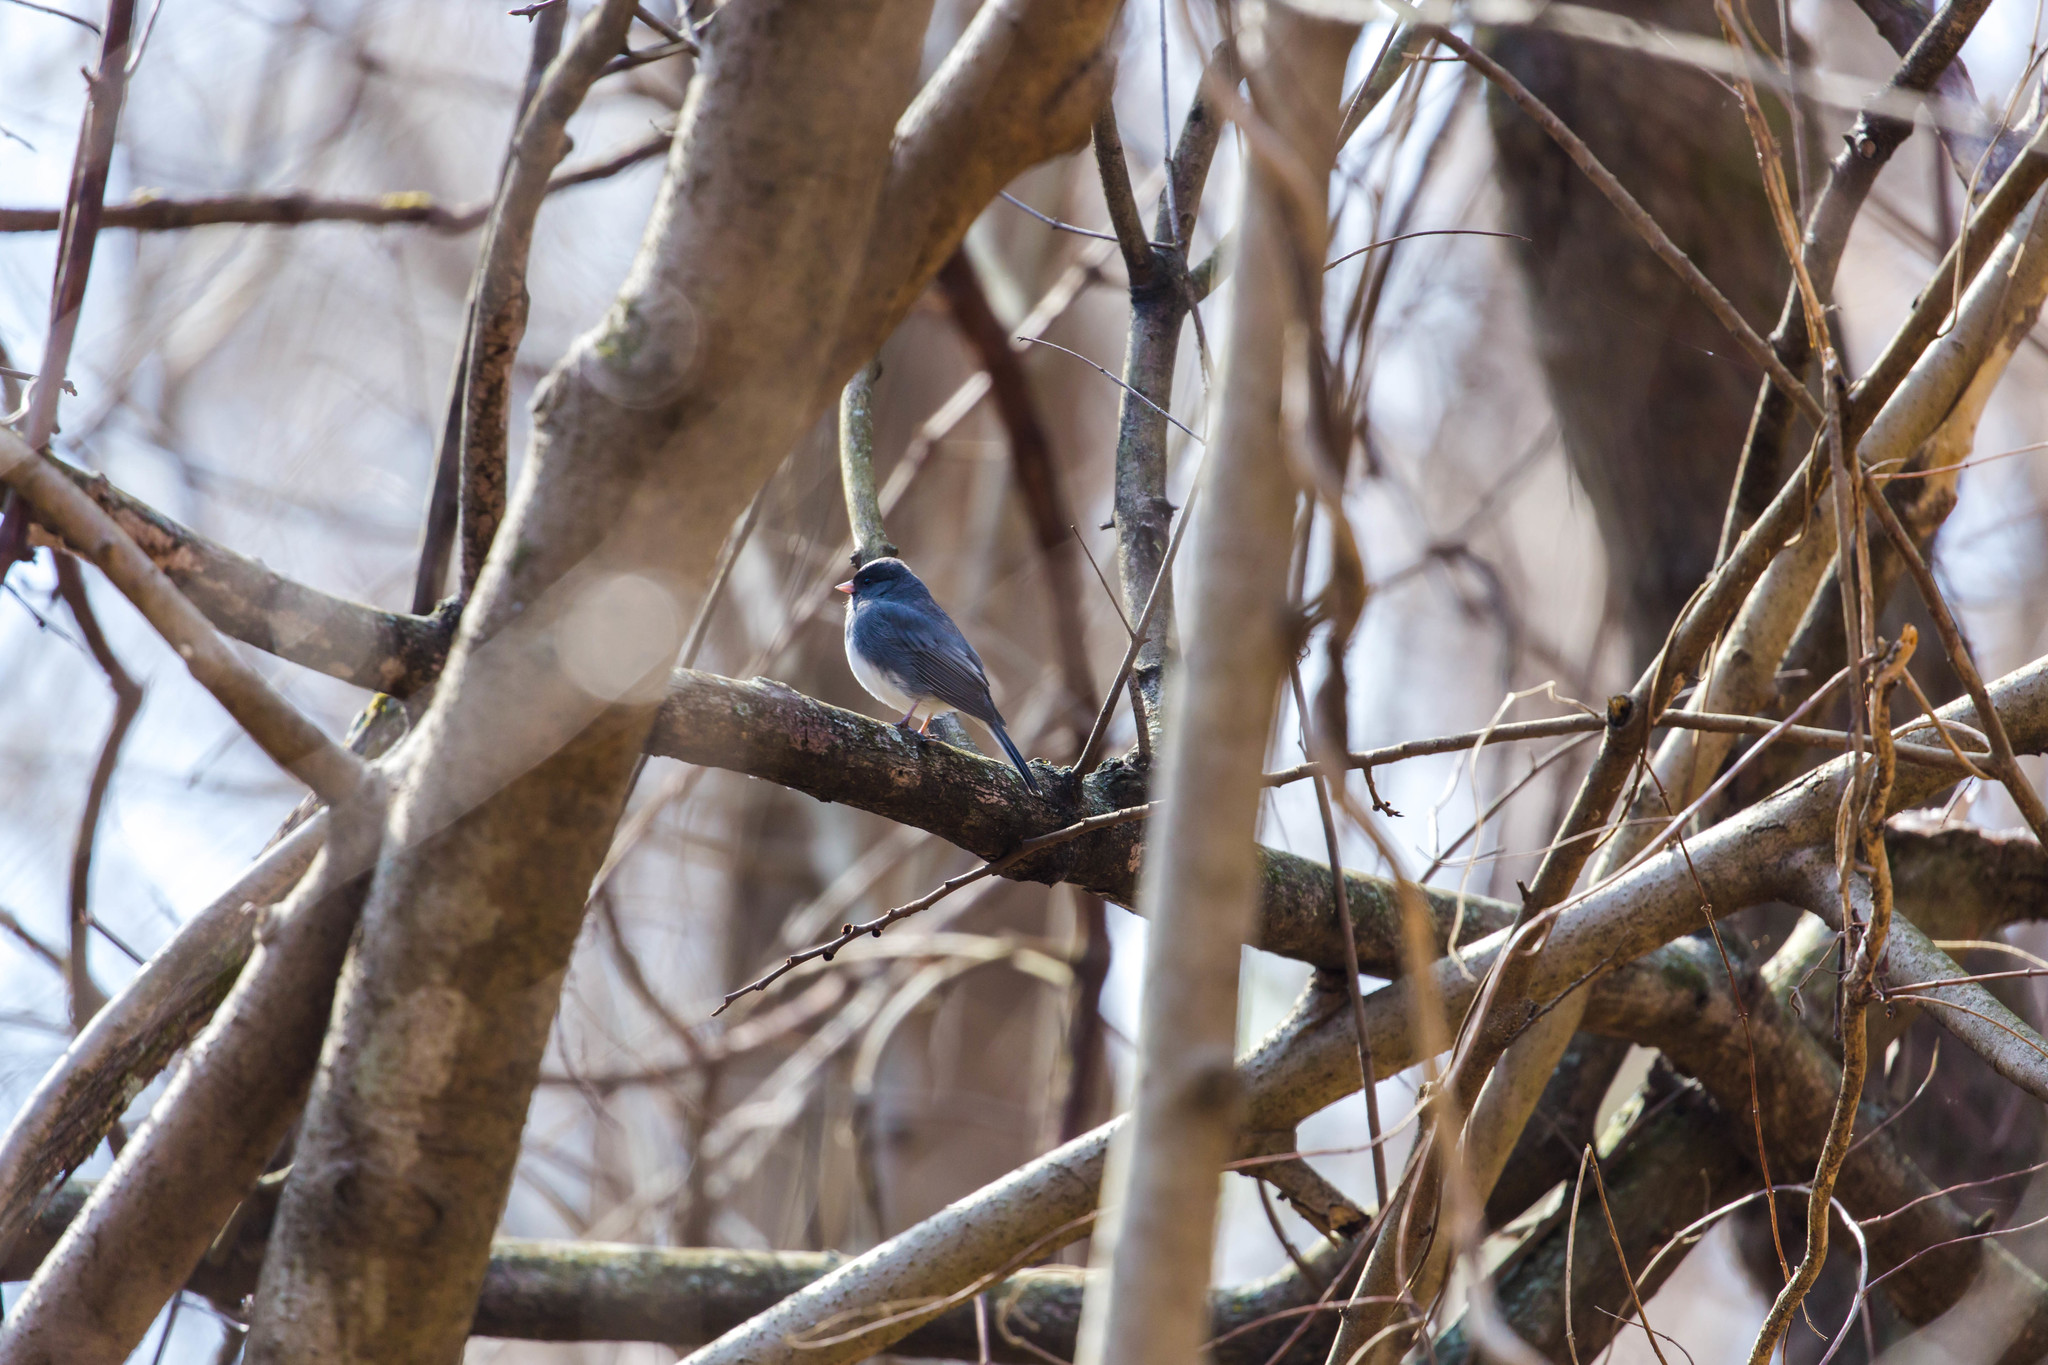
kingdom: Animalia
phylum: Chordata
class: Aves
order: Passeriformes
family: Passerellidae
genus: Junco
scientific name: Junco hyemalis
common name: Dark-eyed junco
